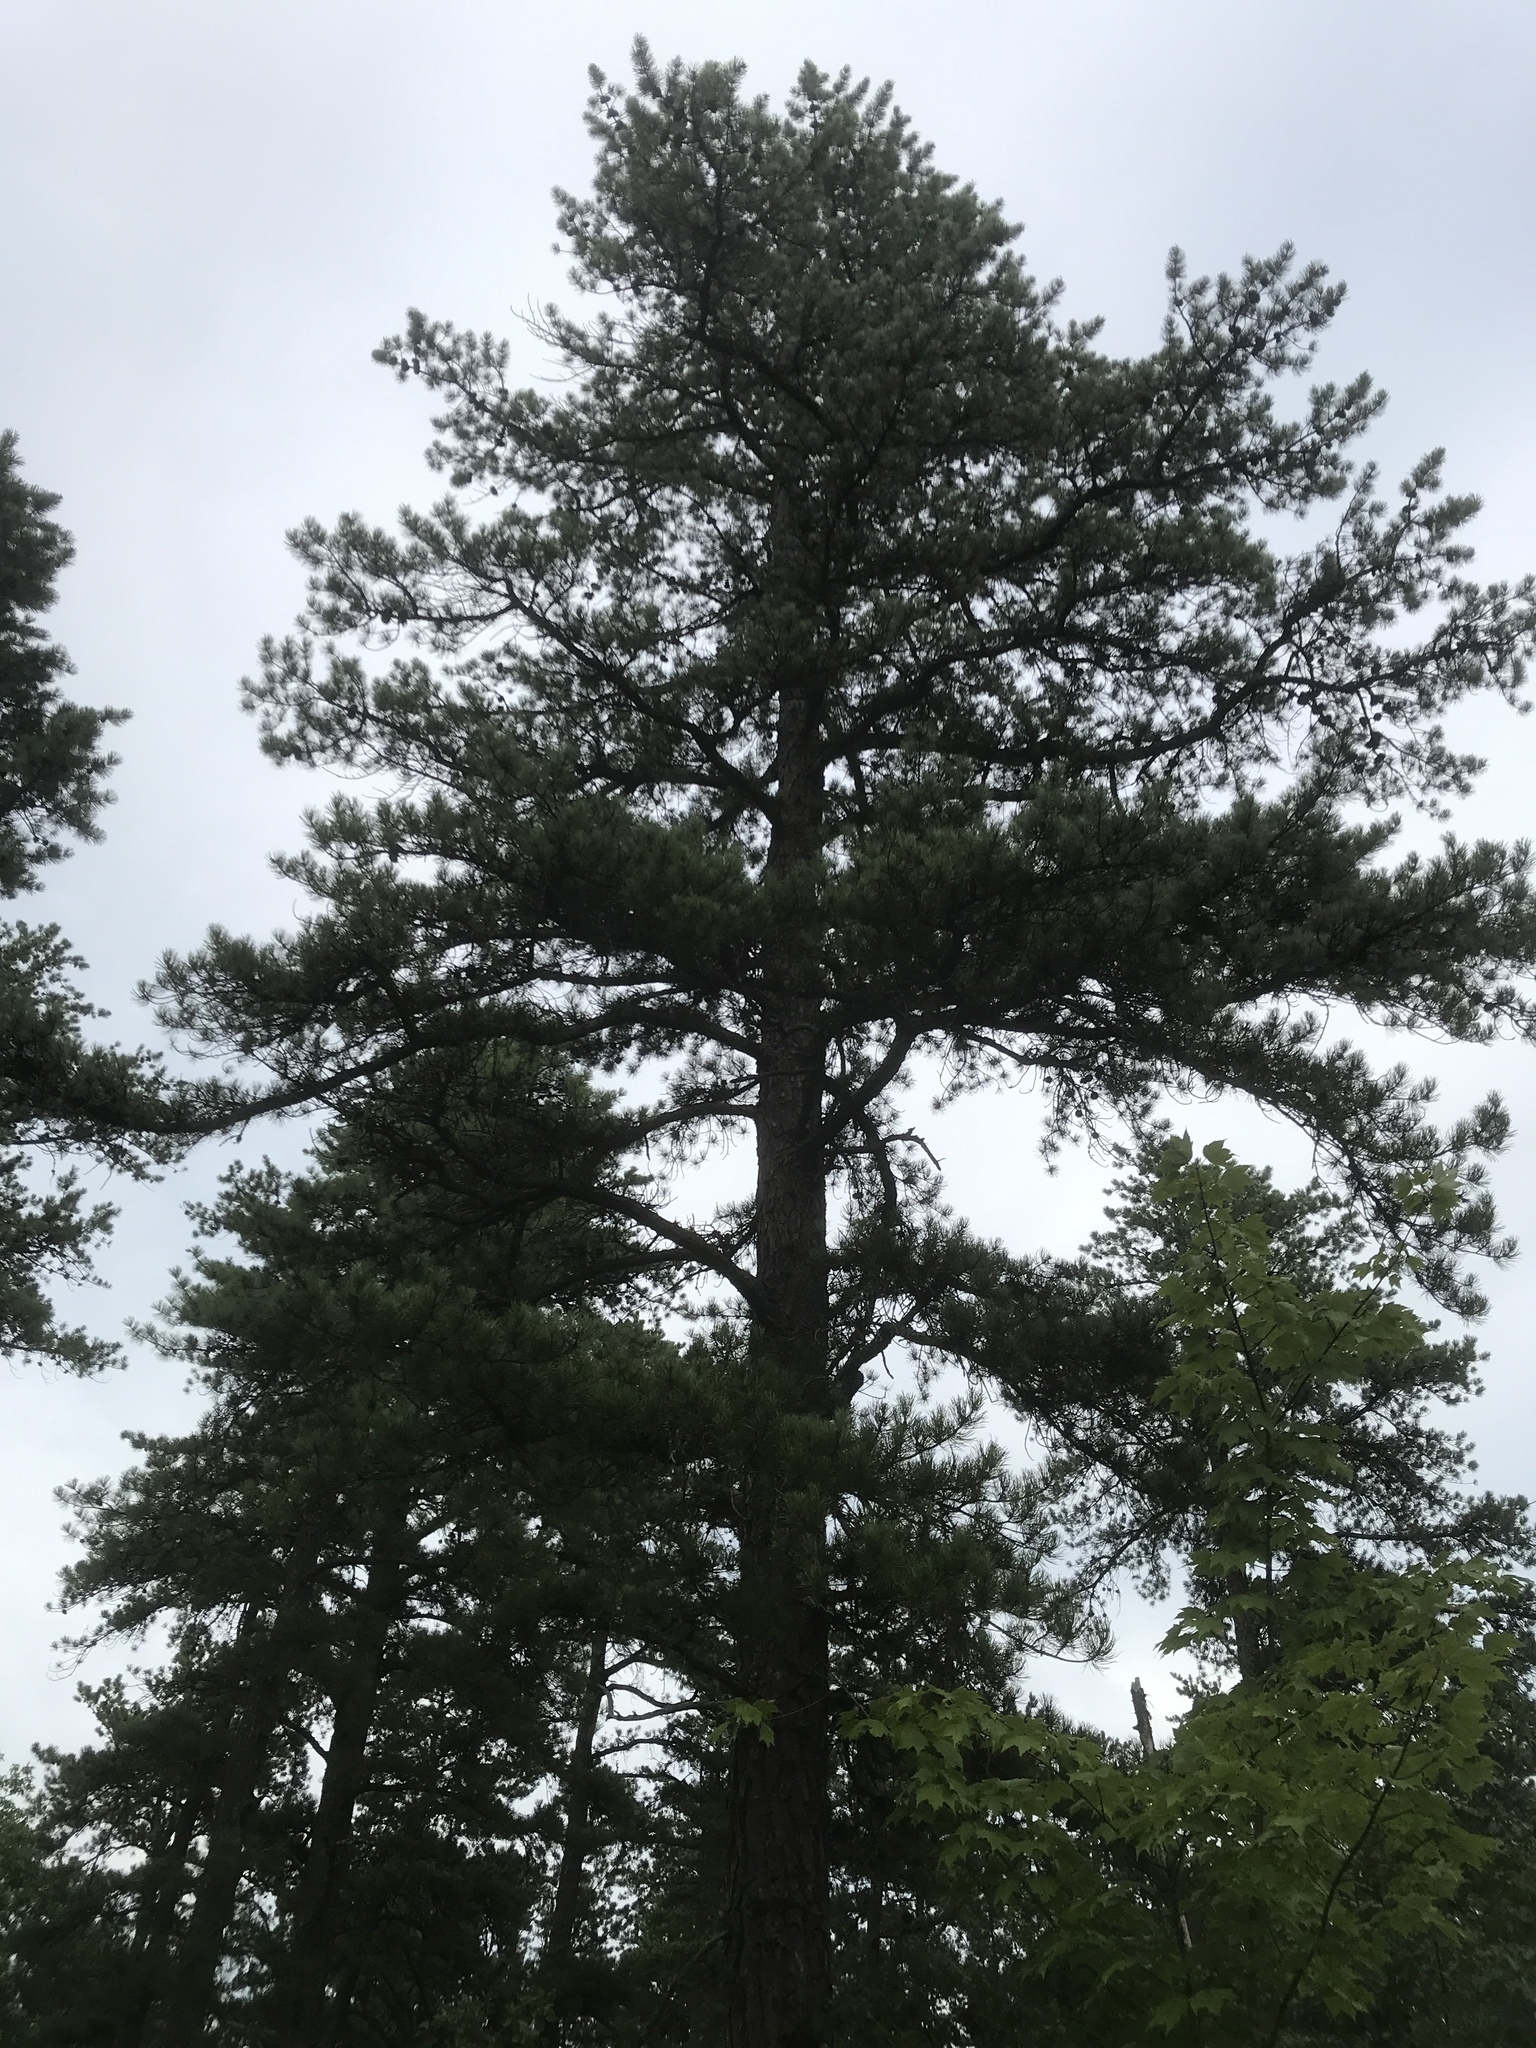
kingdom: Plantae
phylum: Tracheophyta
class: Pinopsida
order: Pinales
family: Pinaceae
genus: Pinus
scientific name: Pinus rigida
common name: Pitch pine
